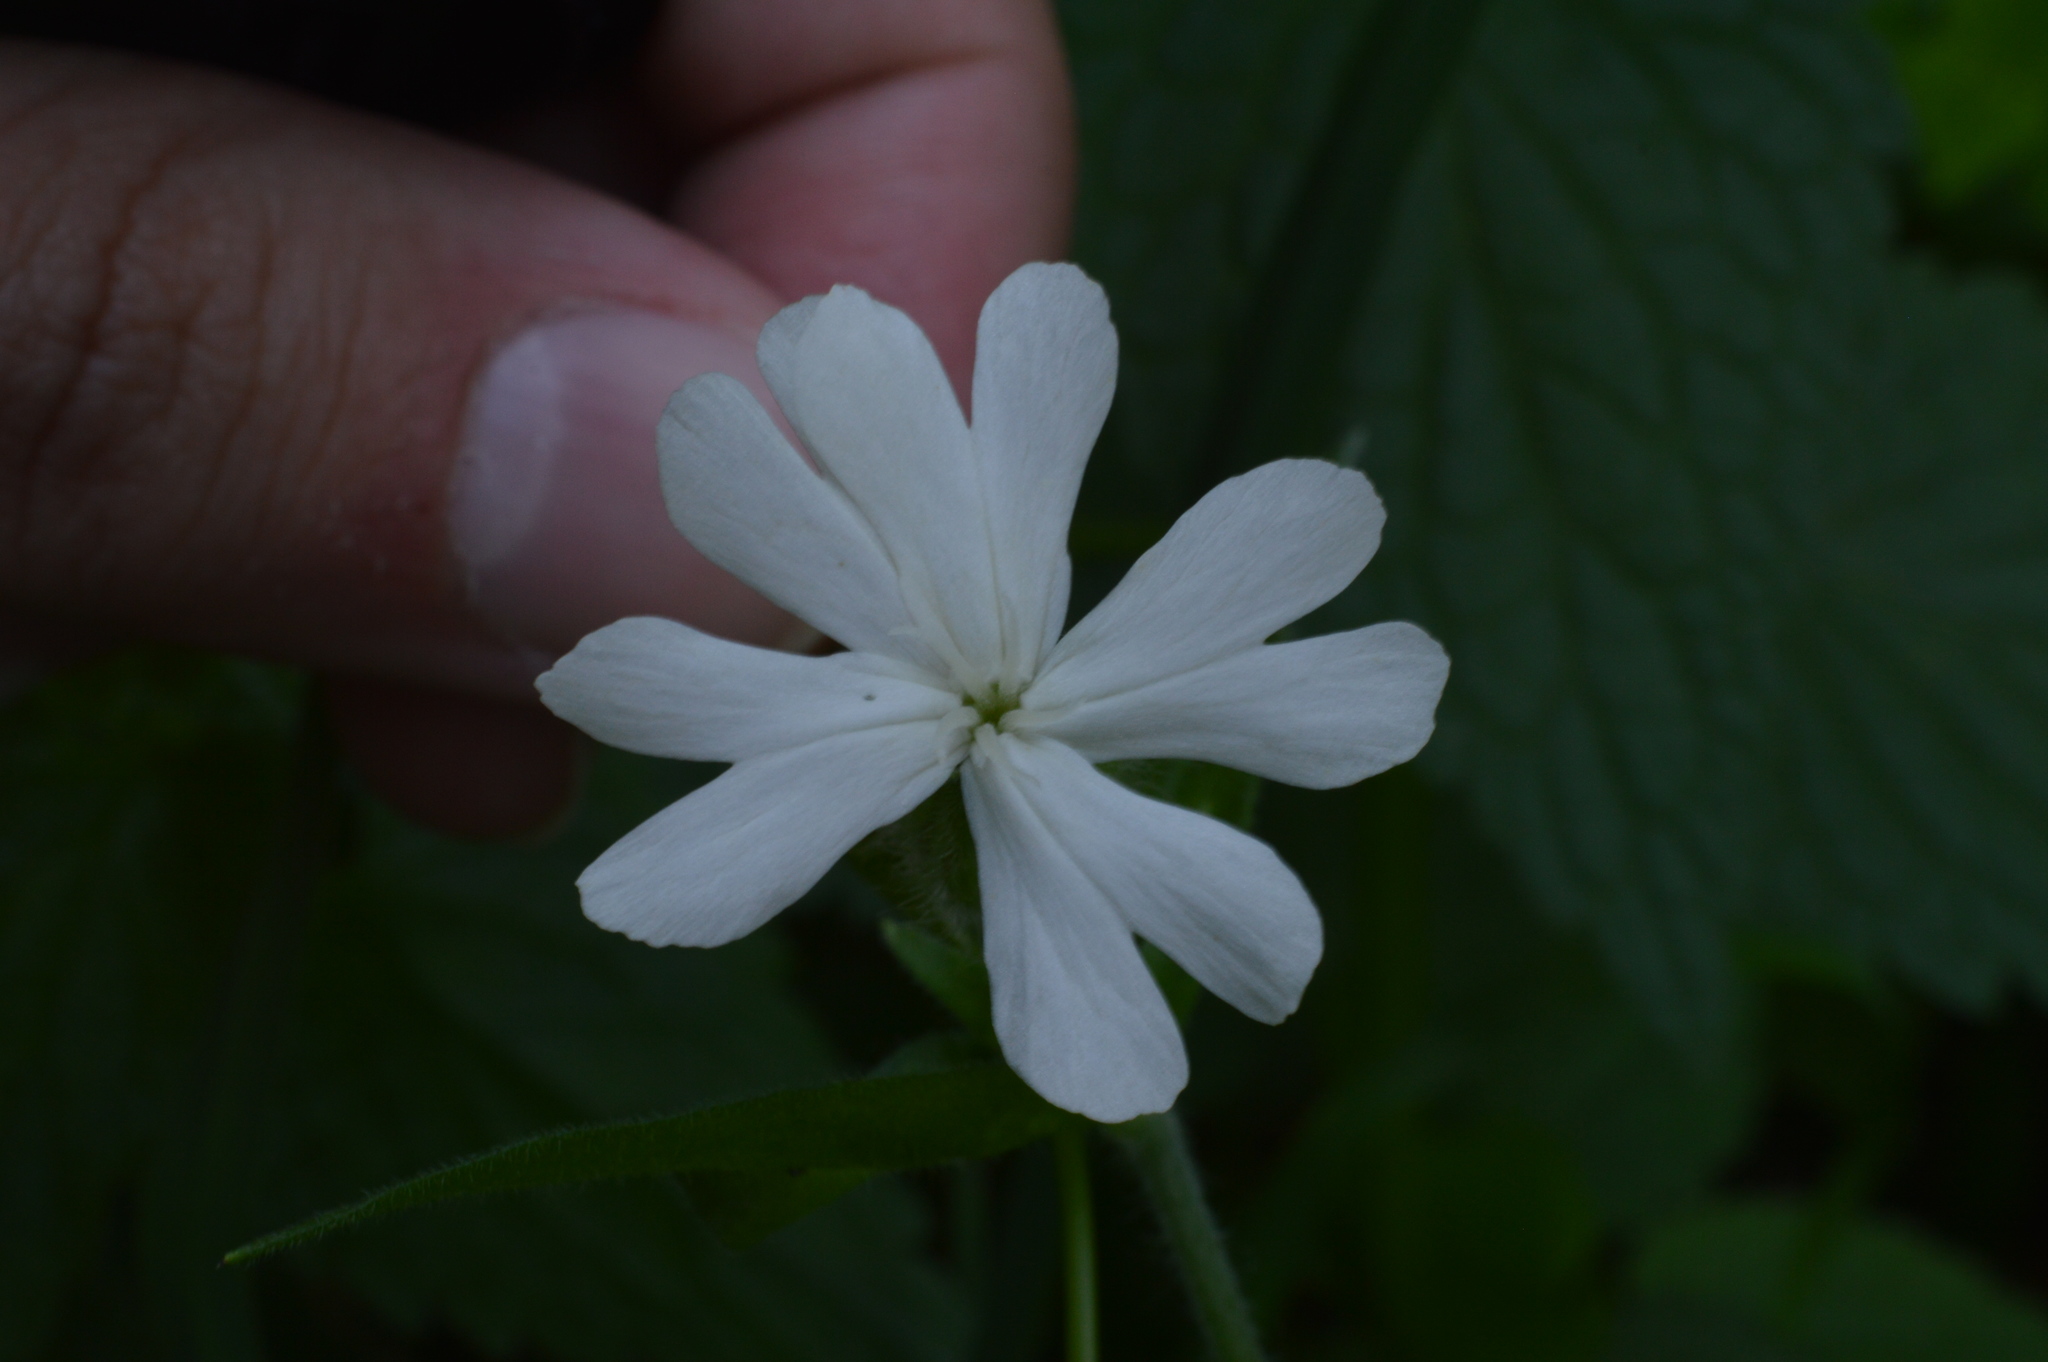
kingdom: Plantae
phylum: Tracheophyta
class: Magnoliopsida
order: Caryophyllales
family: Caryophyllaceae
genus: Silene
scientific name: Silene latifolia
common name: White campion
